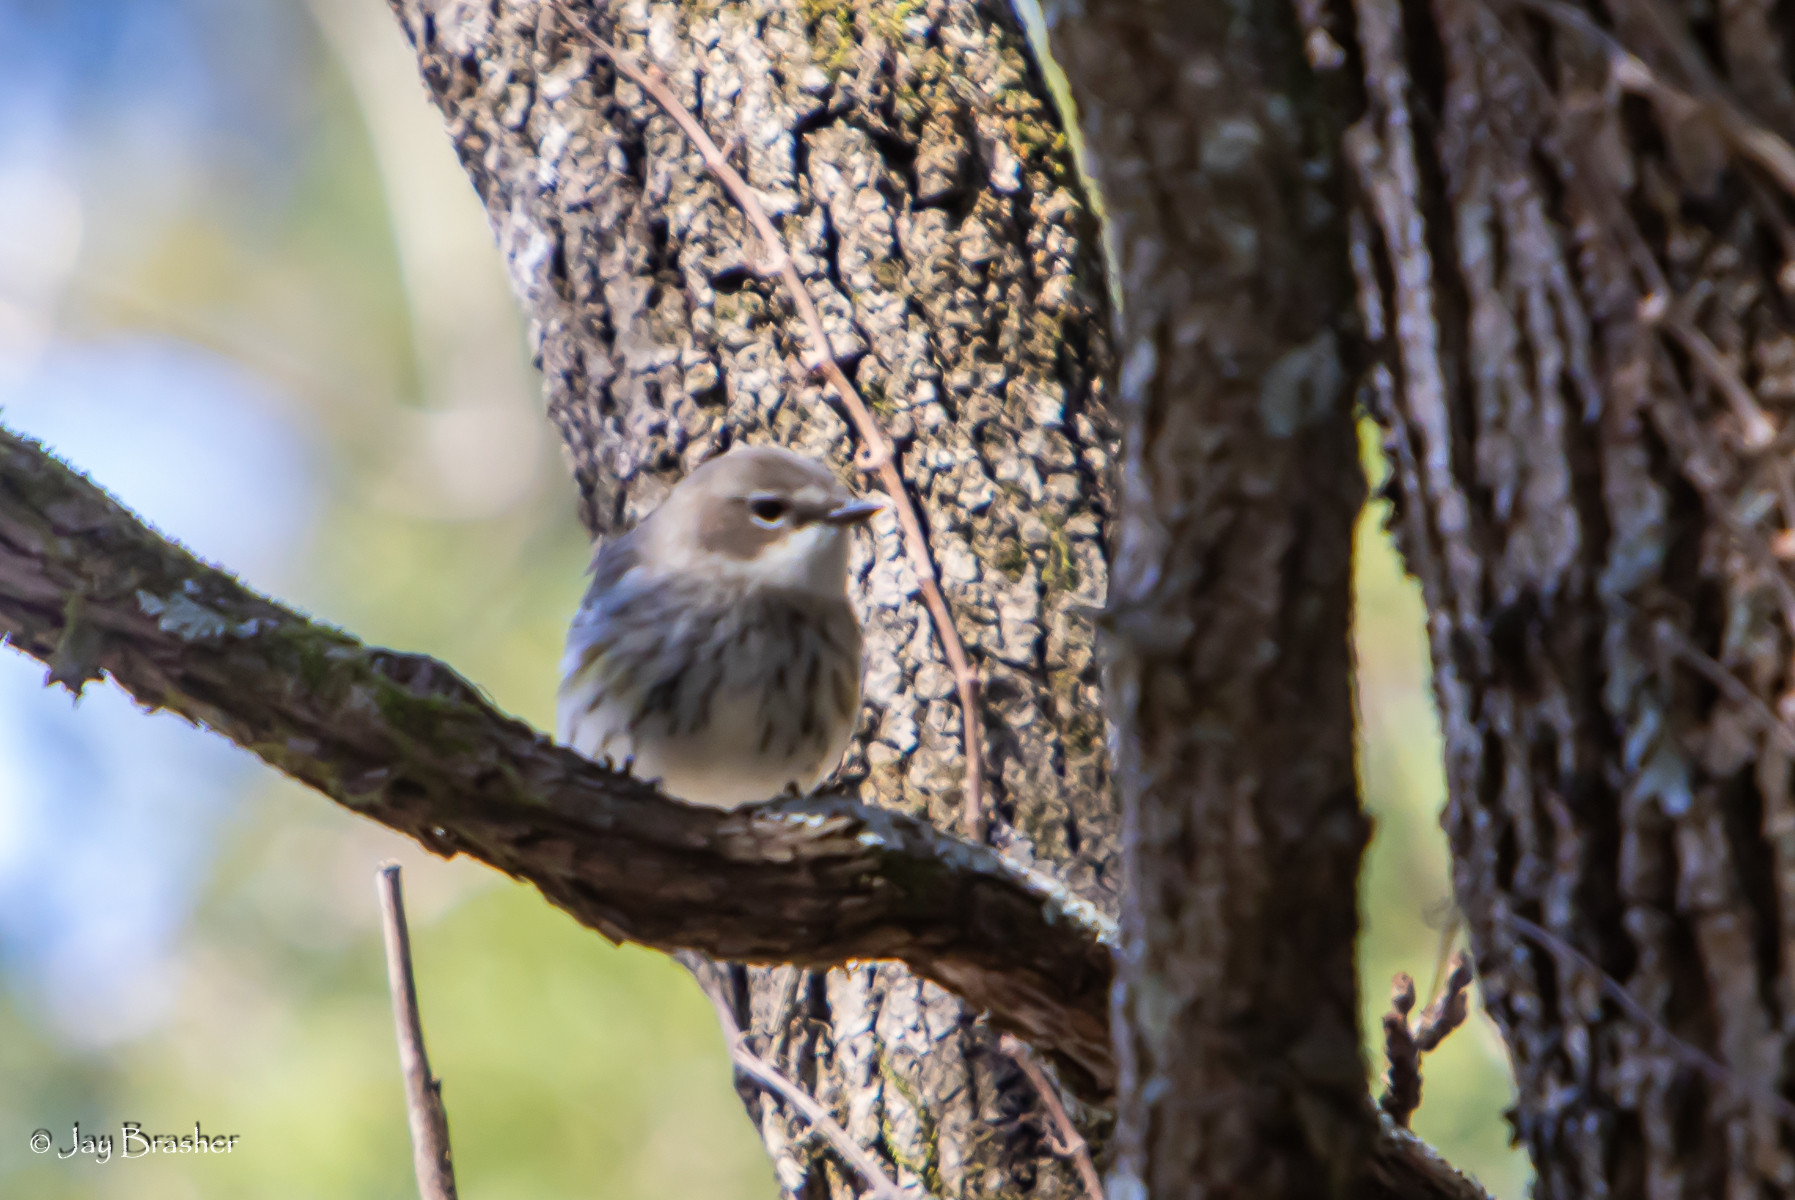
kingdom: Animalia
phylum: Chordata
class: Aves
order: Passeriformes
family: Parulidae
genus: Setophaga
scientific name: Setophaga coronata
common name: Myrtle warbler
